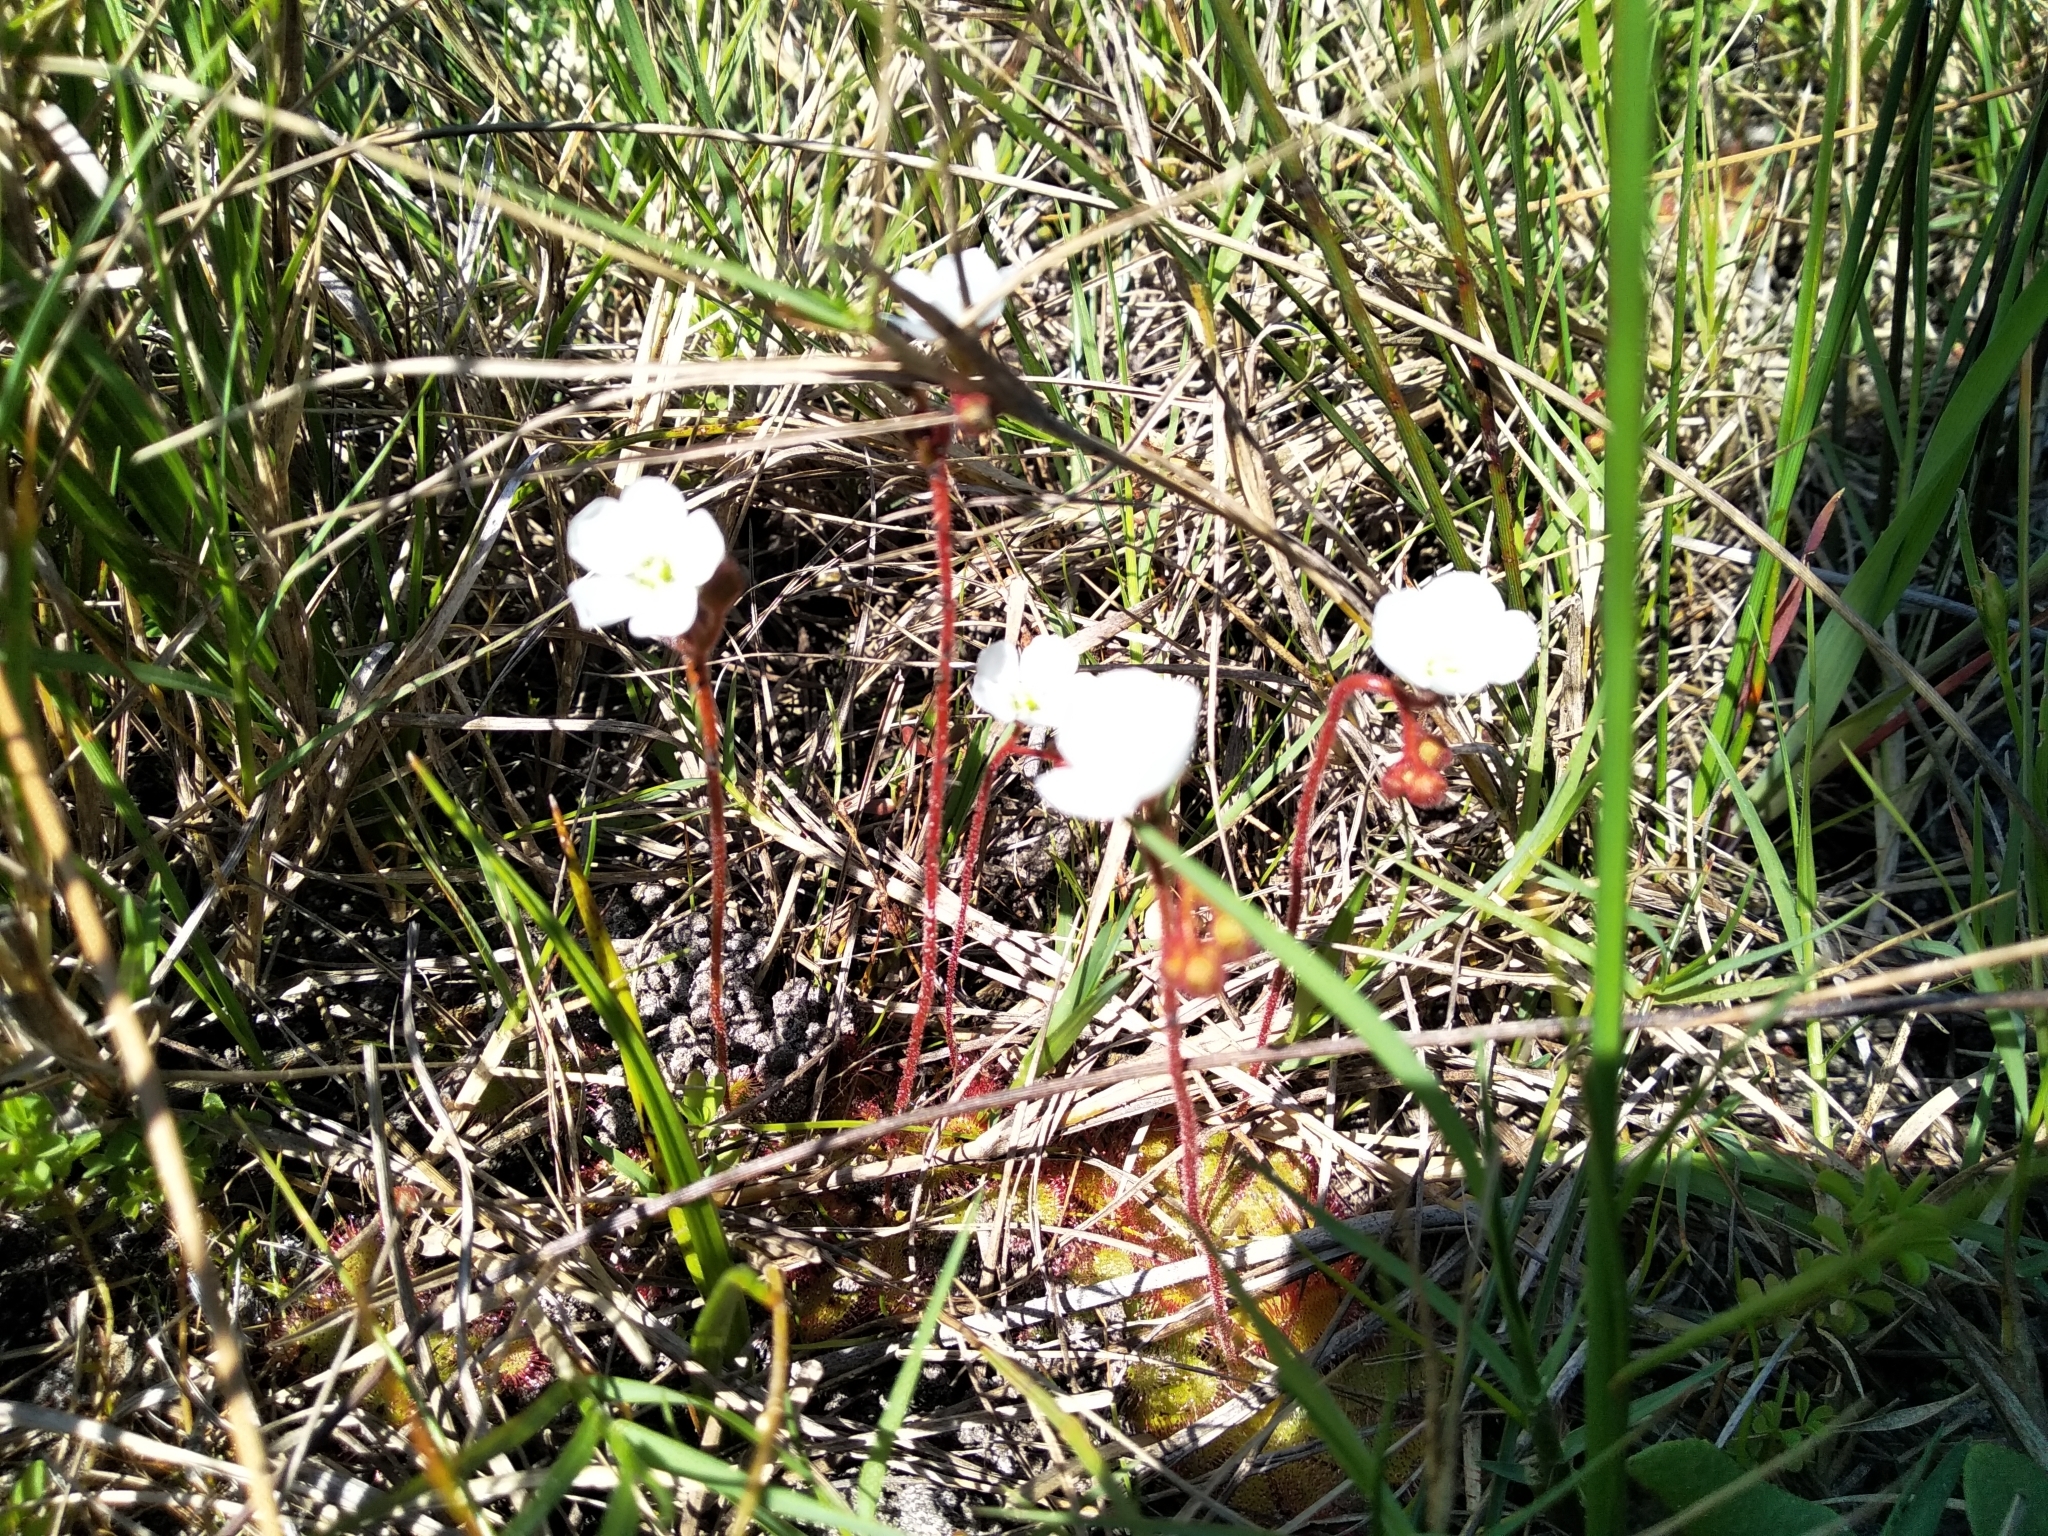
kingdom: Plantae
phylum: Tracheophyta
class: Magnoliopsida
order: Caryophyllales
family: Droseraceae
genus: Drosera
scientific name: Drosera trinervia
